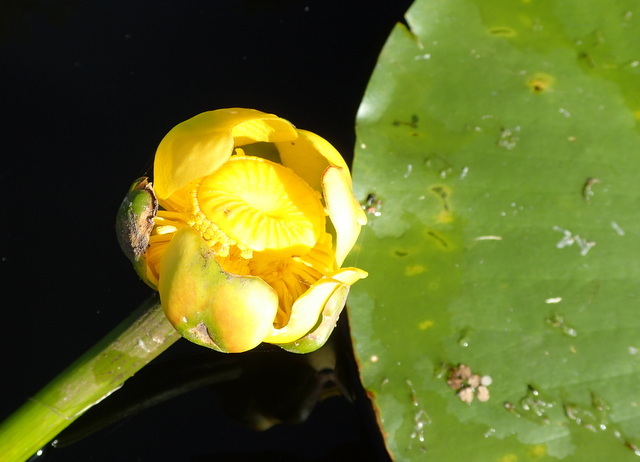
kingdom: Plantae
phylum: Tracheophyta
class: Magnoliopsida
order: Nymphaeales
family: Nymphaeaceae
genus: Nuphar
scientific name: Nuphar advena
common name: Spatter-dock
